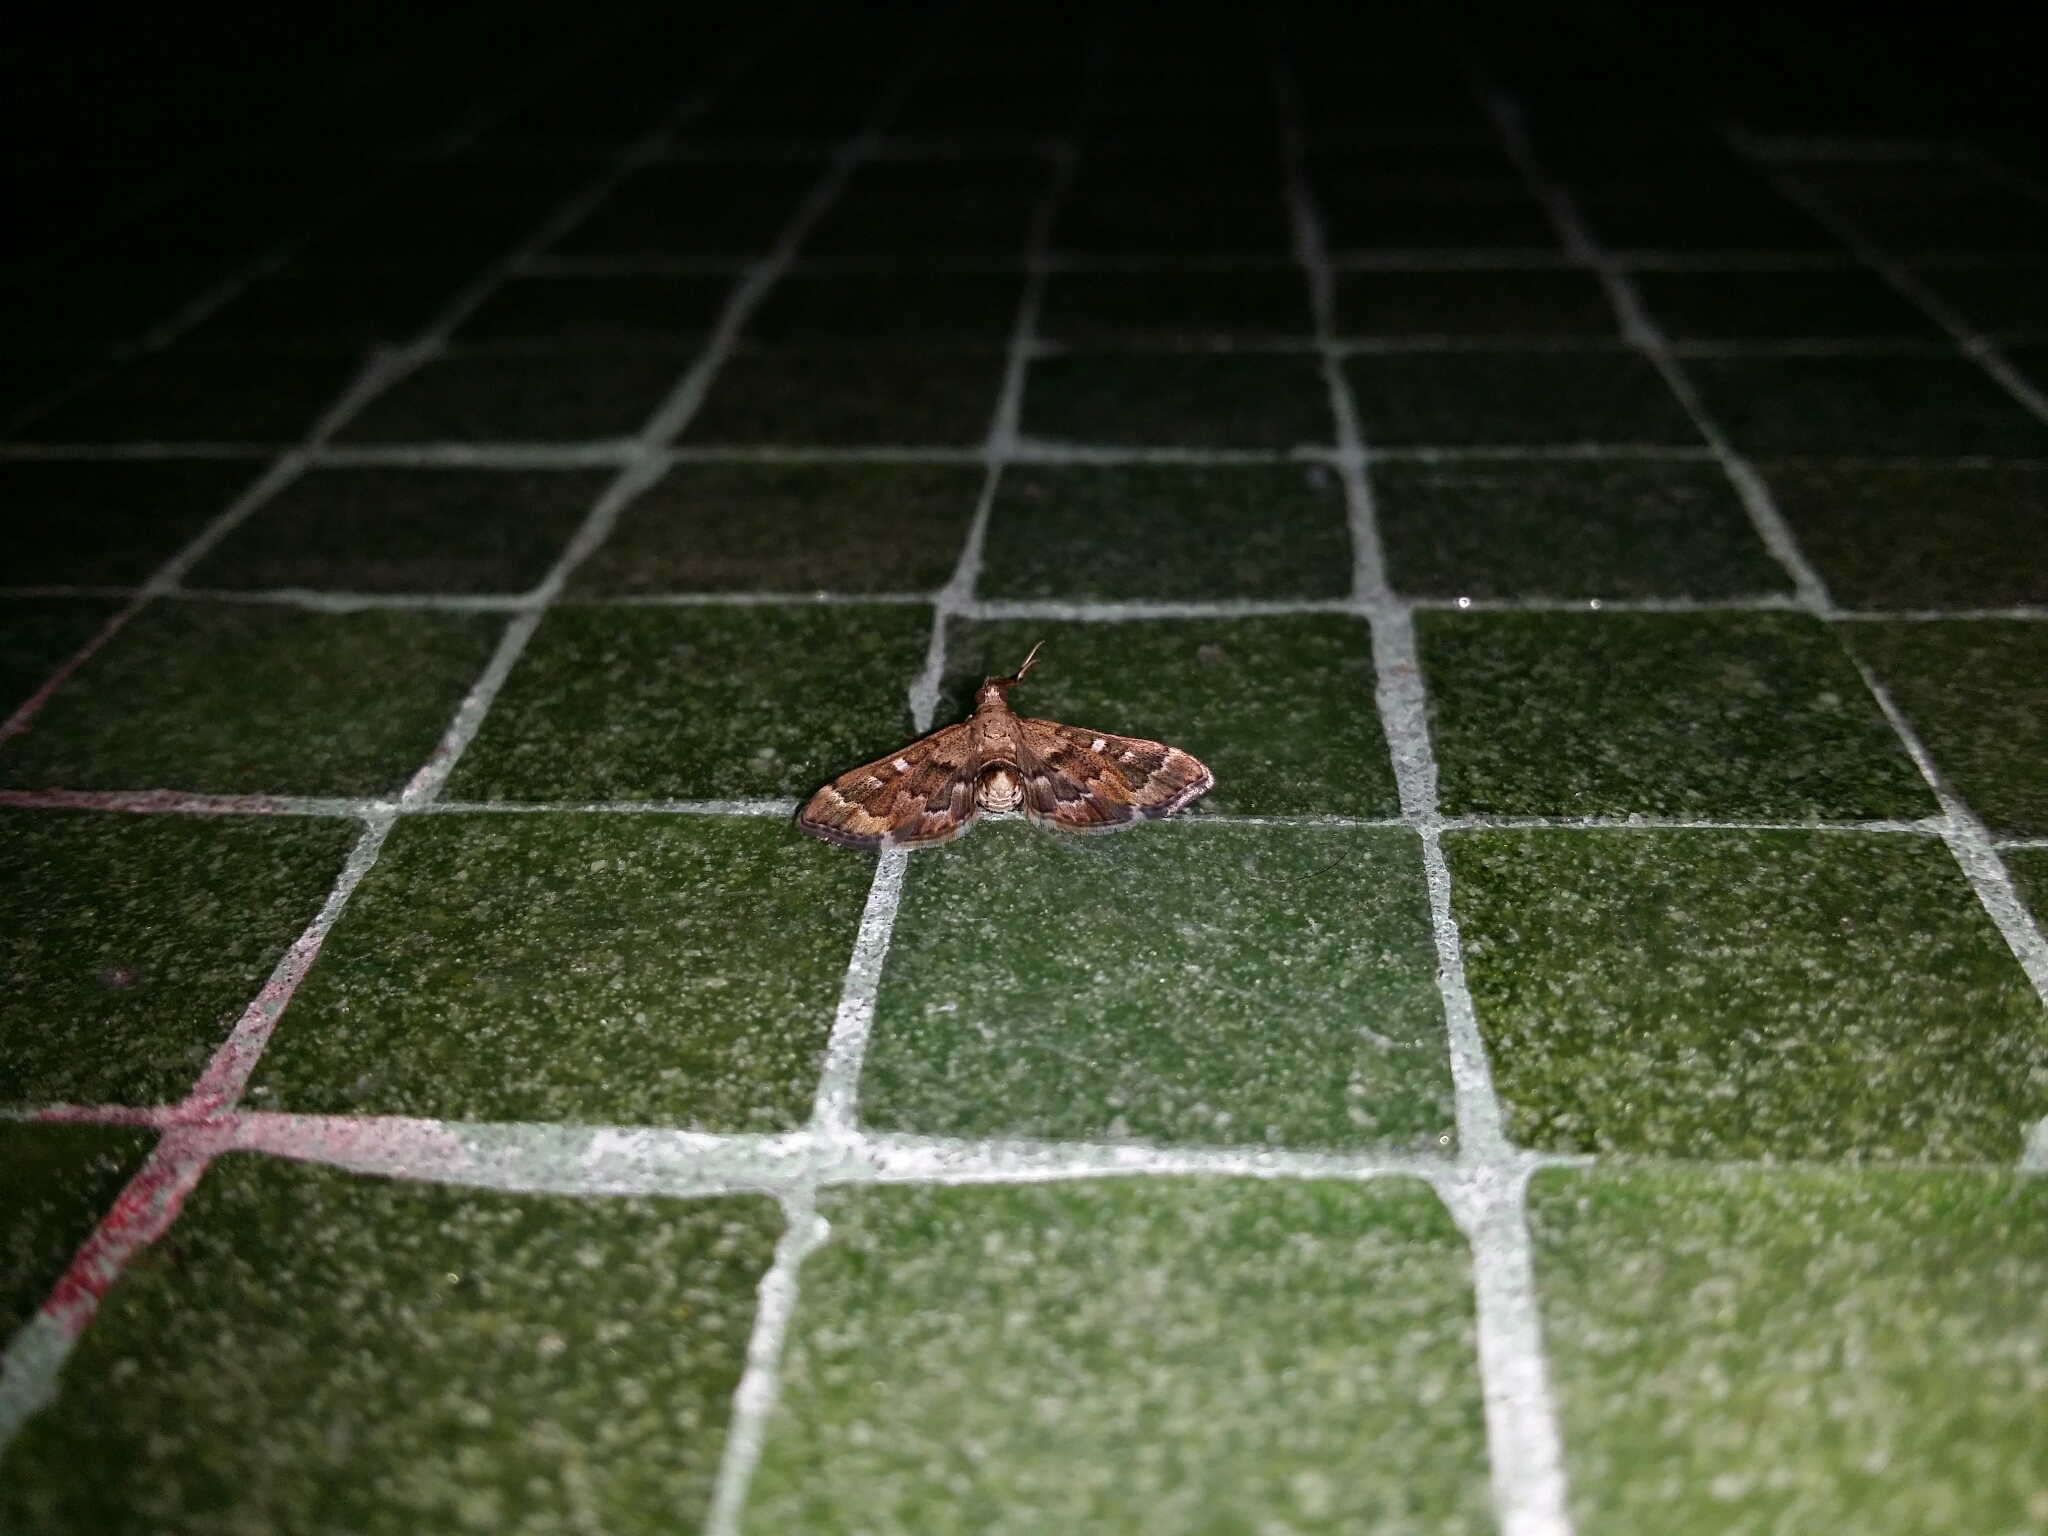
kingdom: Animalia
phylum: Arthropoda
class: Insecta
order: Lepidoptera
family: Crambidae
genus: Nacoleia
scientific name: Nacoleia rhoeoalis
